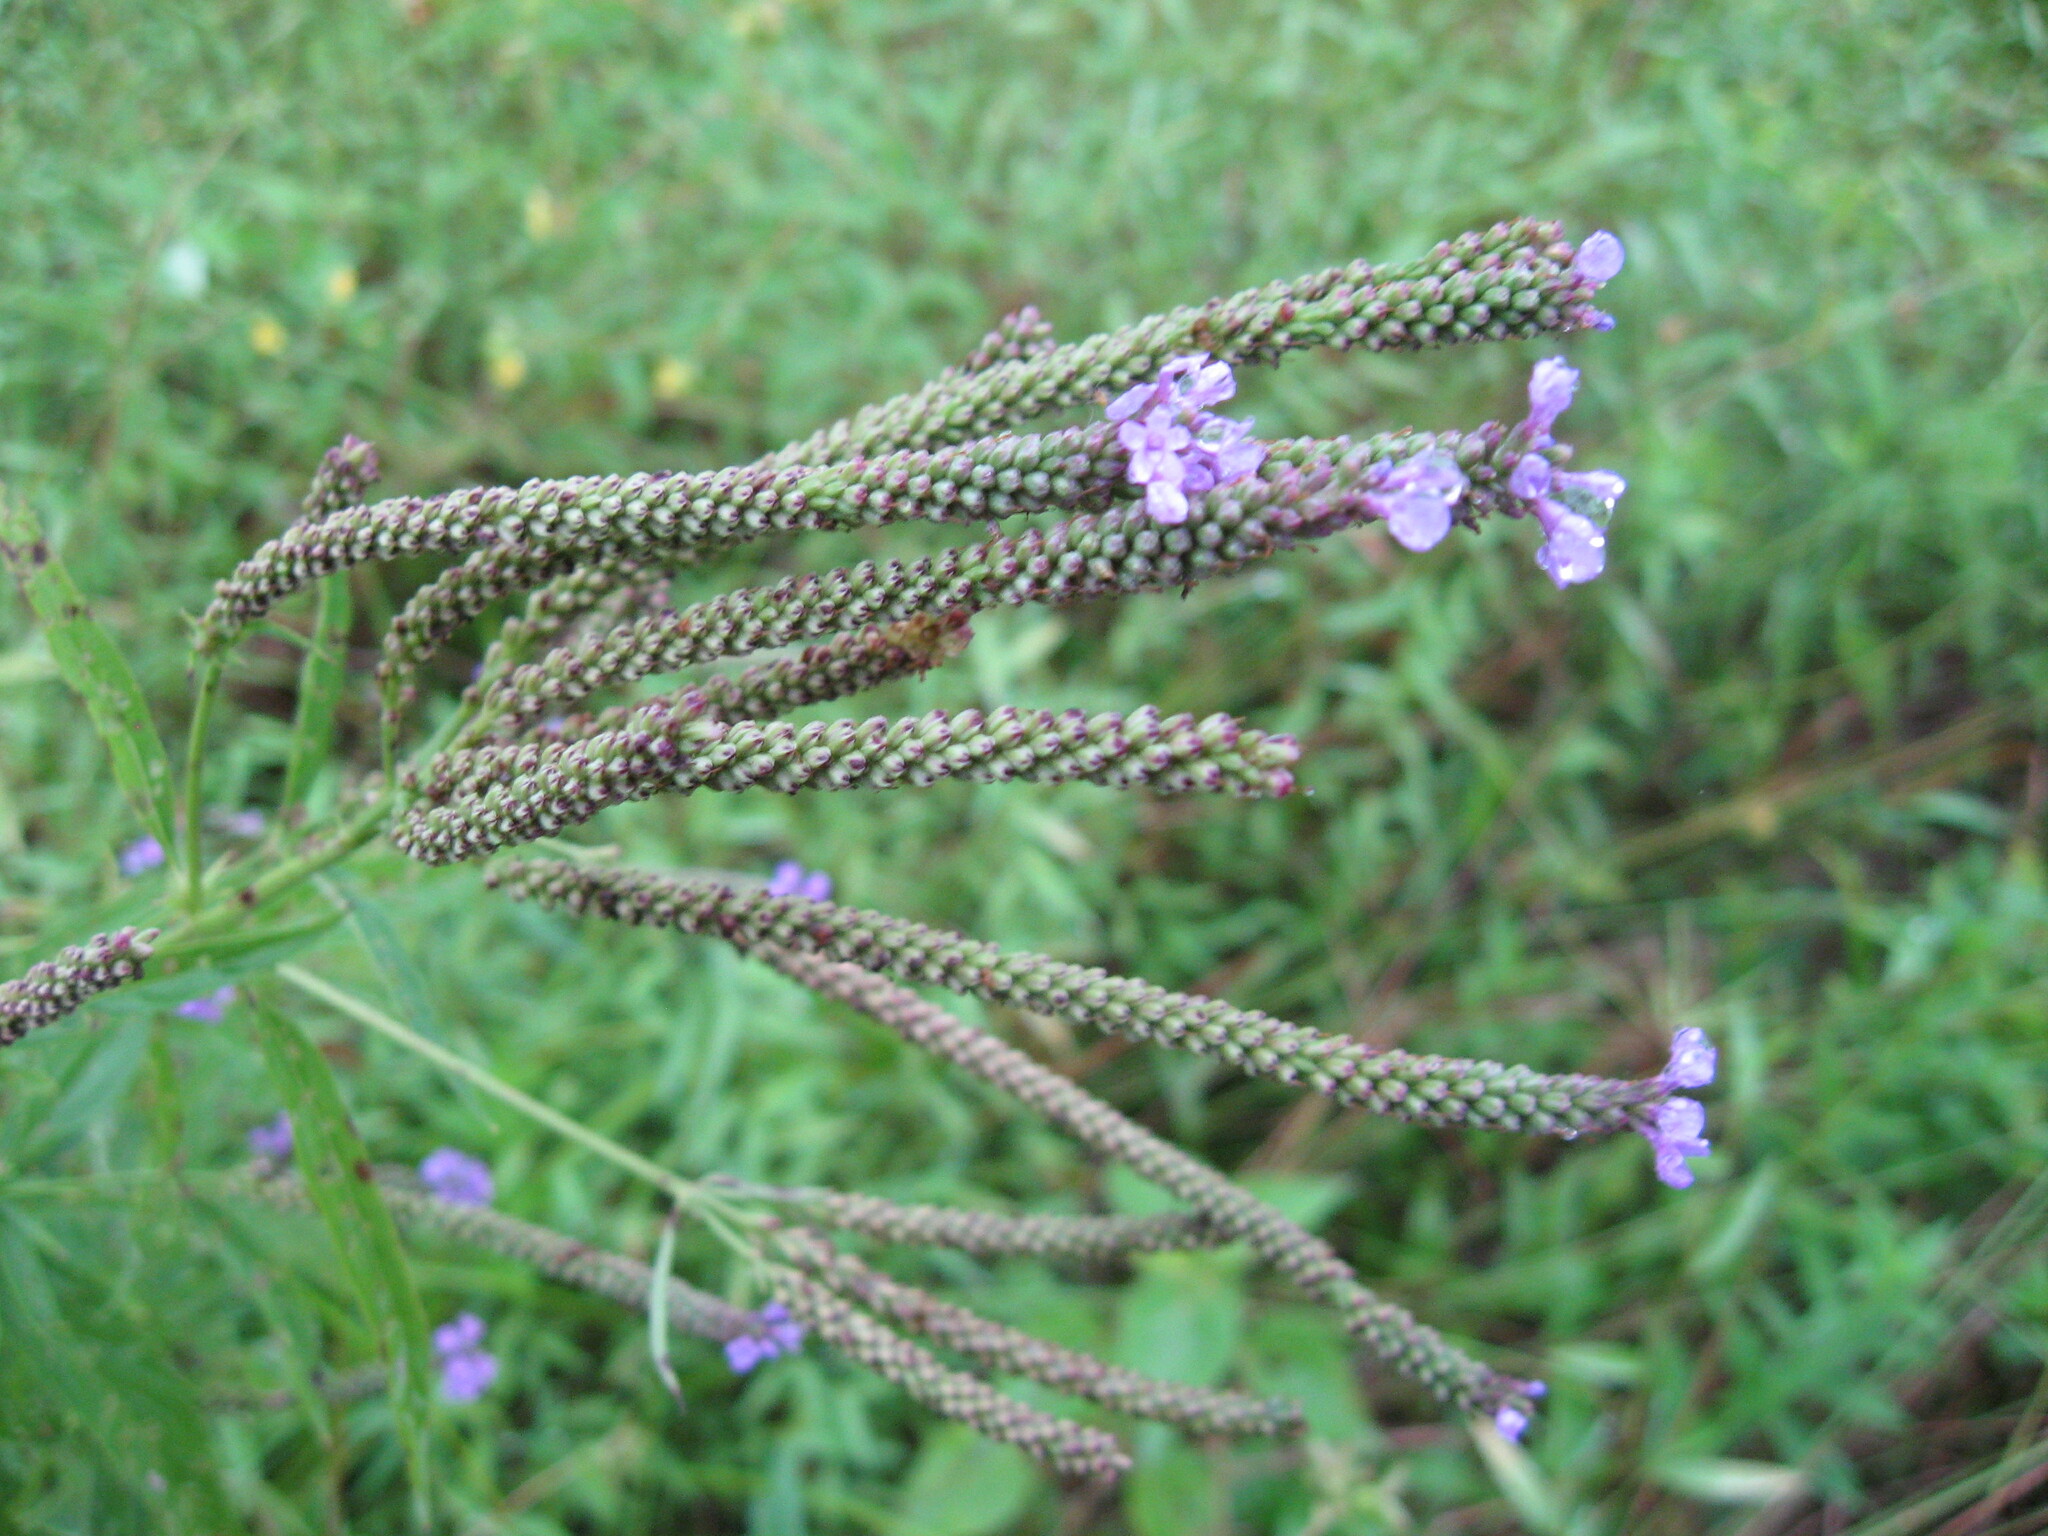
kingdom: Plantae
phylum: Tracheophyta
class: Magnoliopsida
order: Lamiales
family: Verbenaceae
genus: Verbena
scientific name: Verbena hastata
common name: American blue vervain
